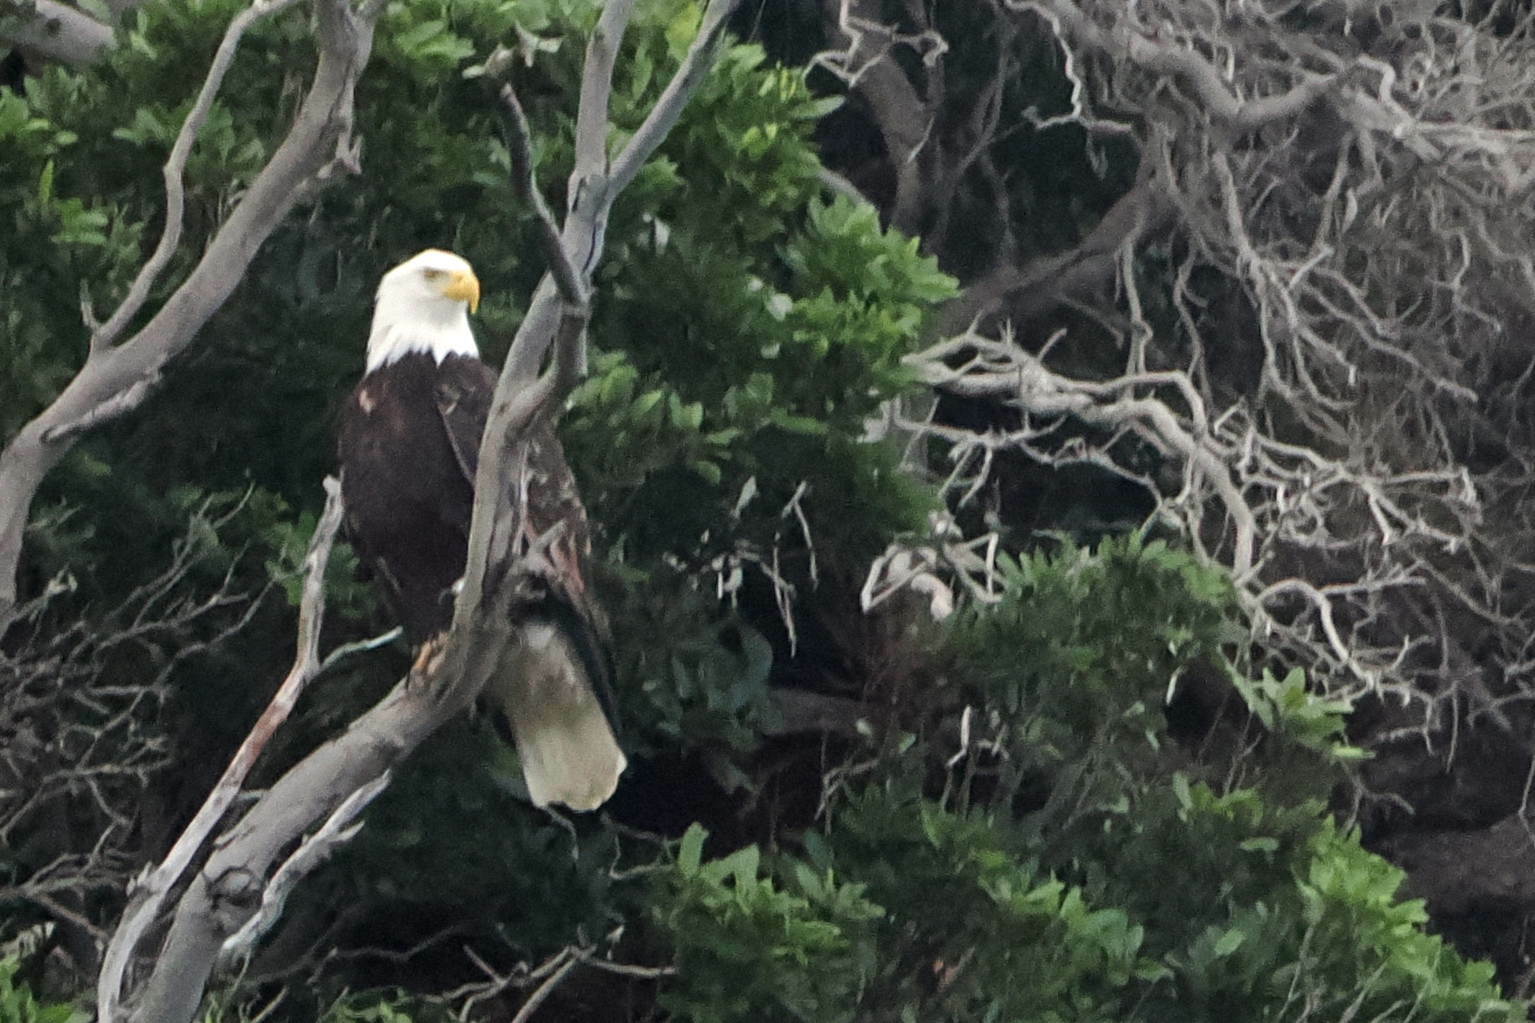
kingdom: Animalia
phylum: Chordata
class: Aves
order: Accipitriformes
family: Accipitridae
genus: Haliaeetus
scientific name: Haliaeetus leucocephalus
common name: Bald eagle
